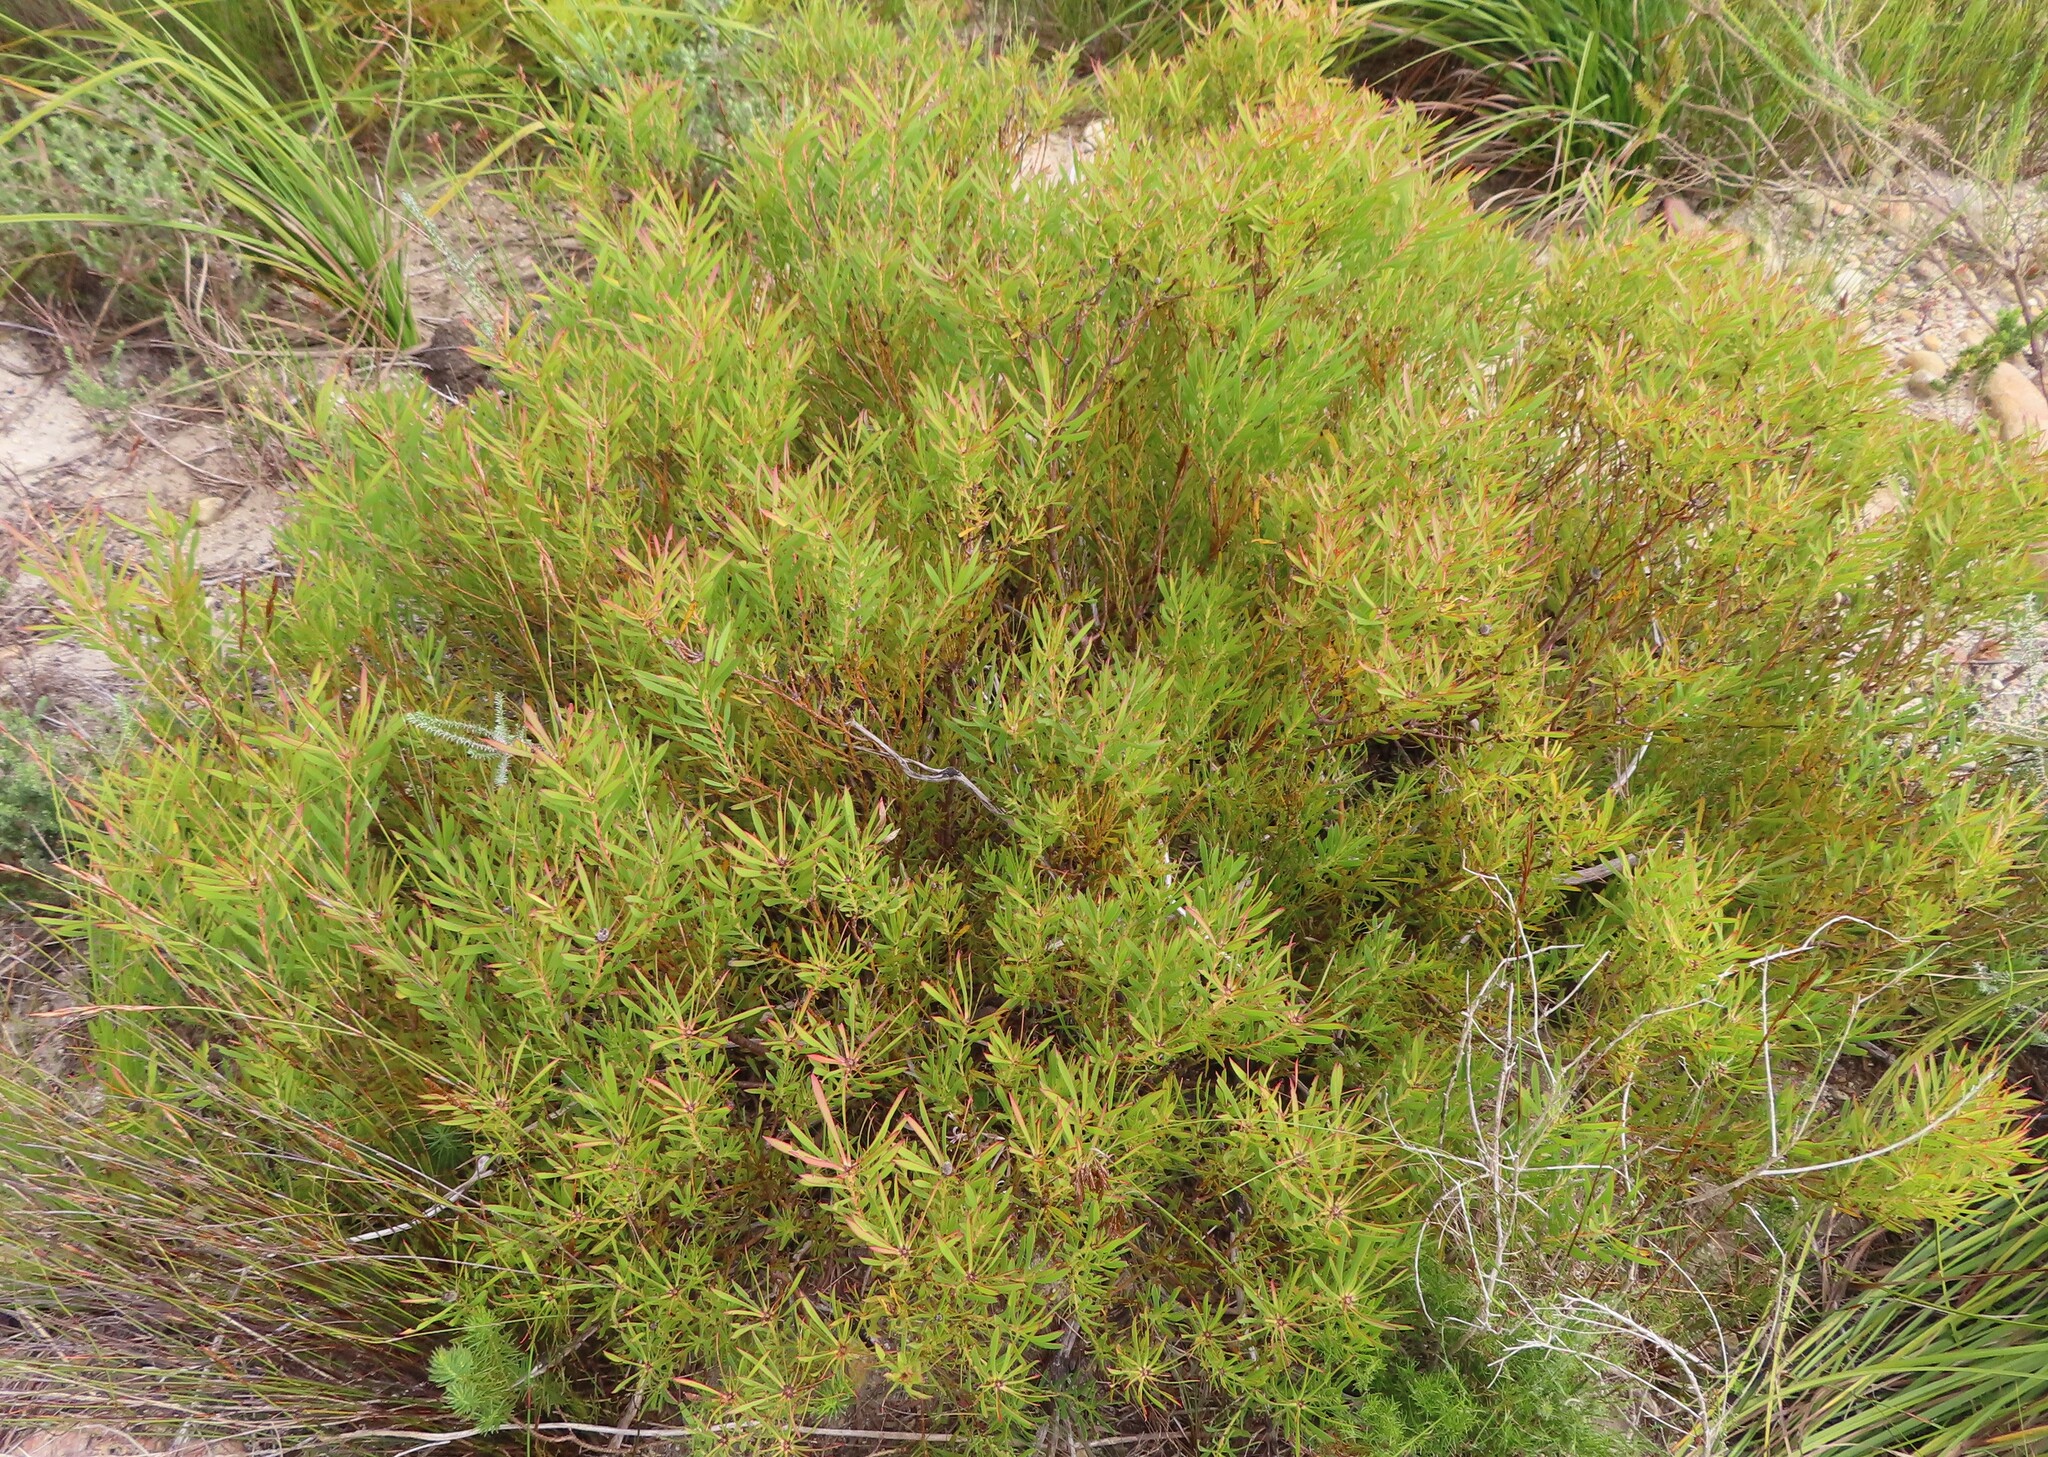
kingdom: Plantae
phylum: Tracheophyta
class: Magnoliopsida
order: Proteales
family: Proteaceae
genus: Leucadendron
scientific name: Leucadendron salignum
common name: Common sunshine conebush
